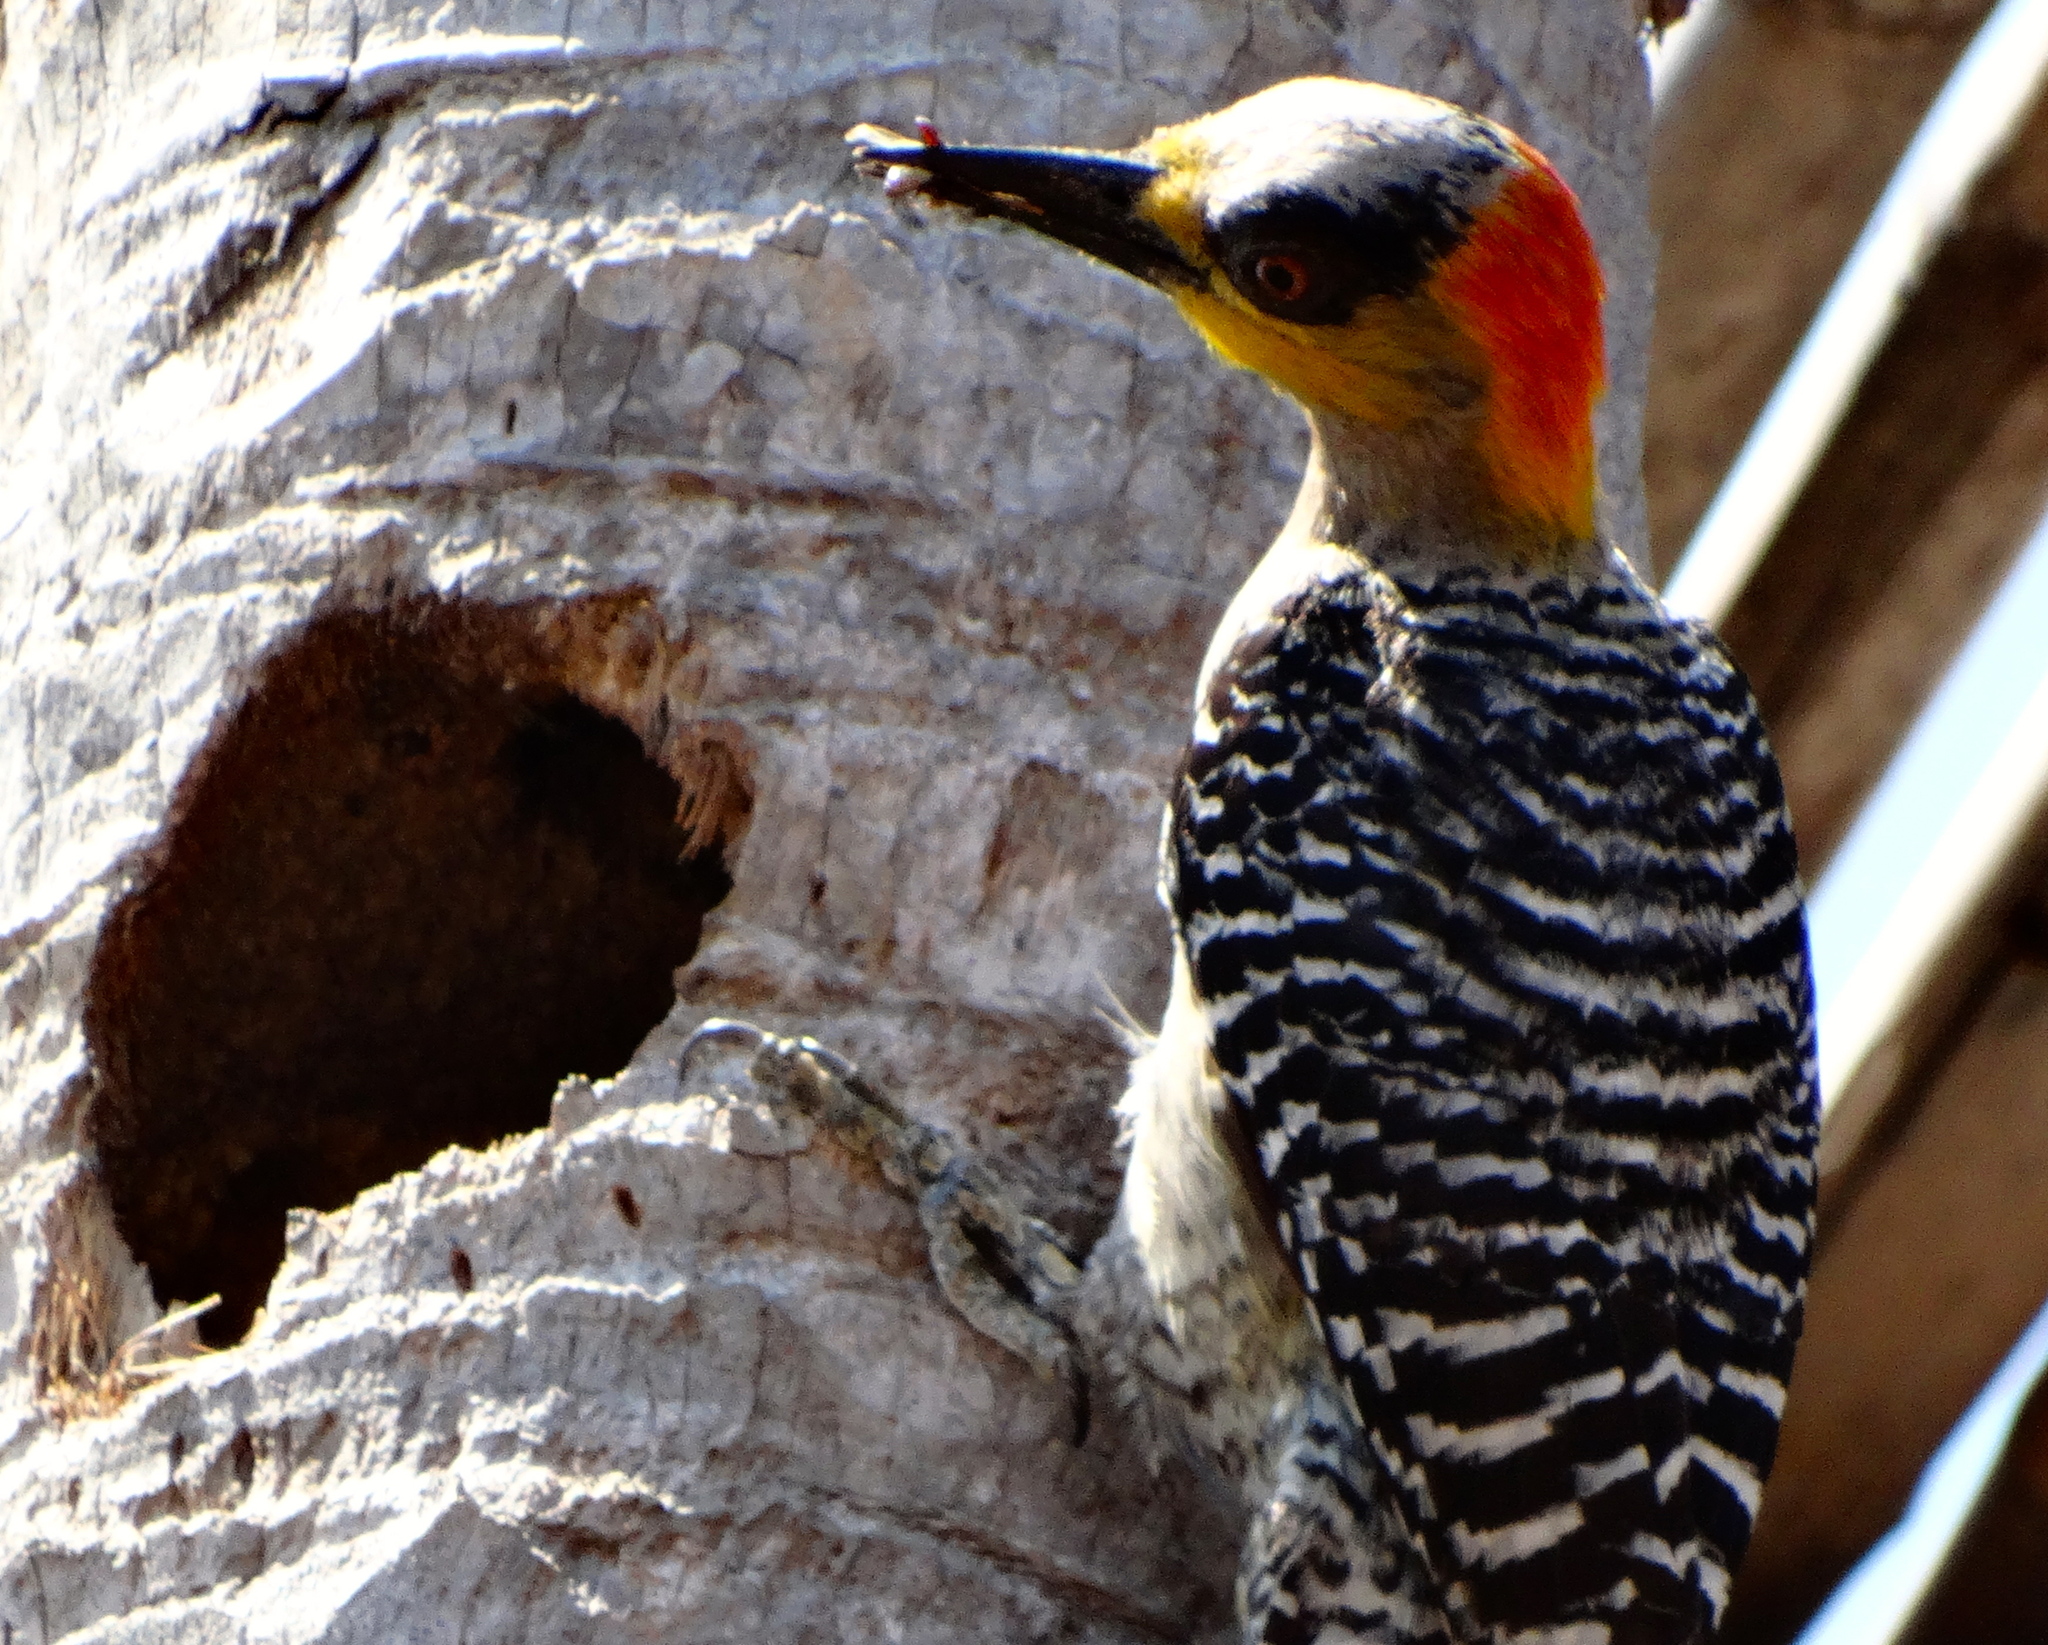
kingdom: Animalia
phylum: Chordata
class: Aves
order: Piciformes
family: Picidae
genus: Melanerpes
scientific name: Melanerpes chrysogenys
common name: Golden-cheeked woodpecker
